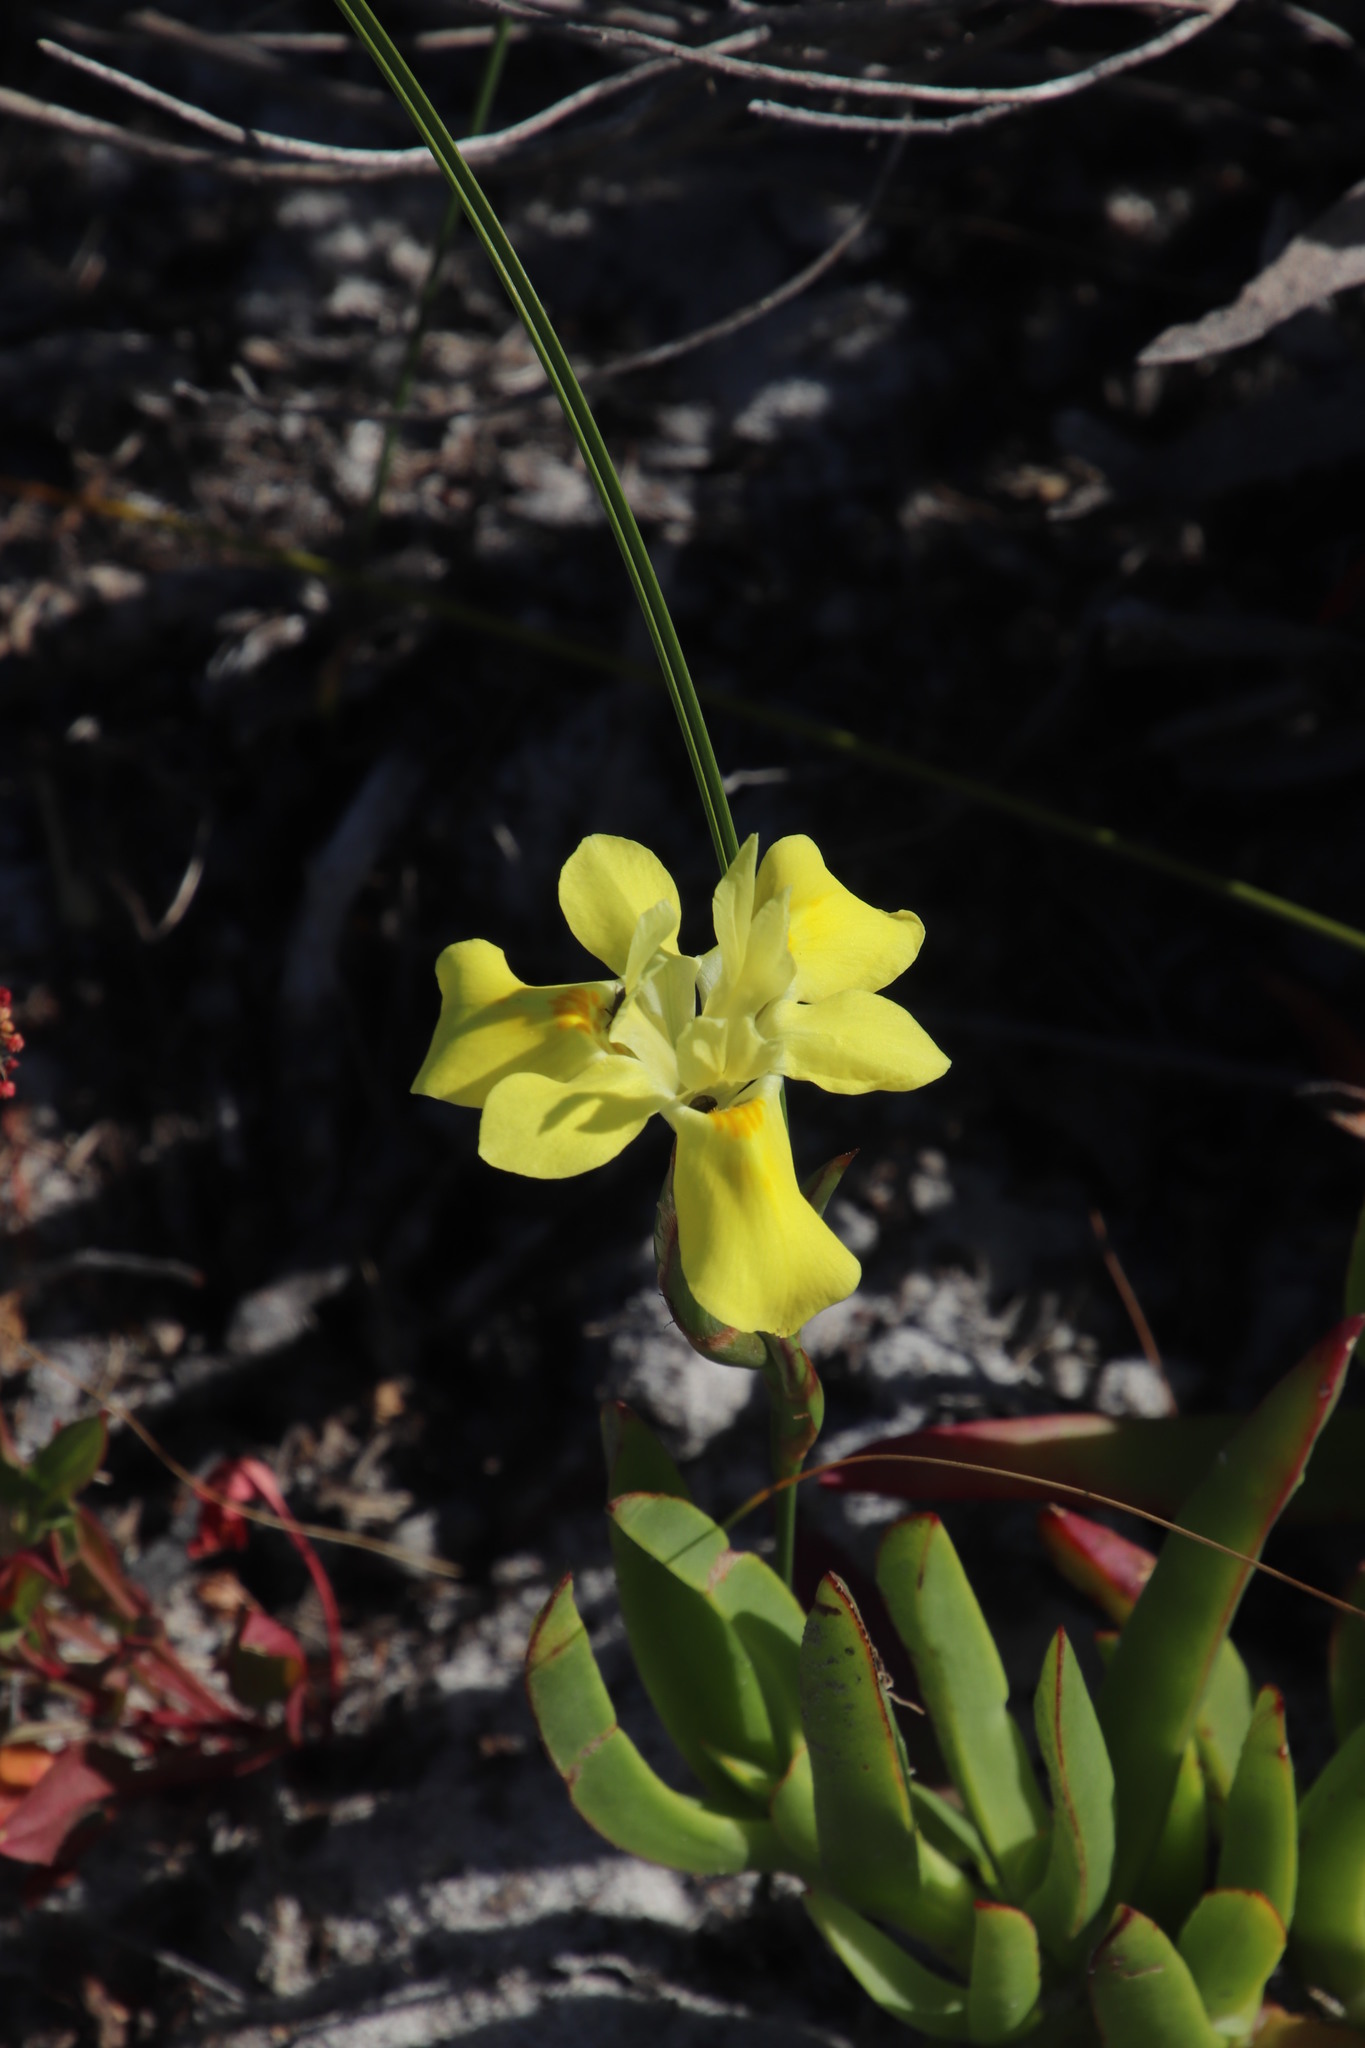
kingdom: Plantae
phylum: Tracheophyta
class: Liliopsida
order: Asparagales
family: Iridaceae
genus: Moraea
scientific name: Moraea fugax
